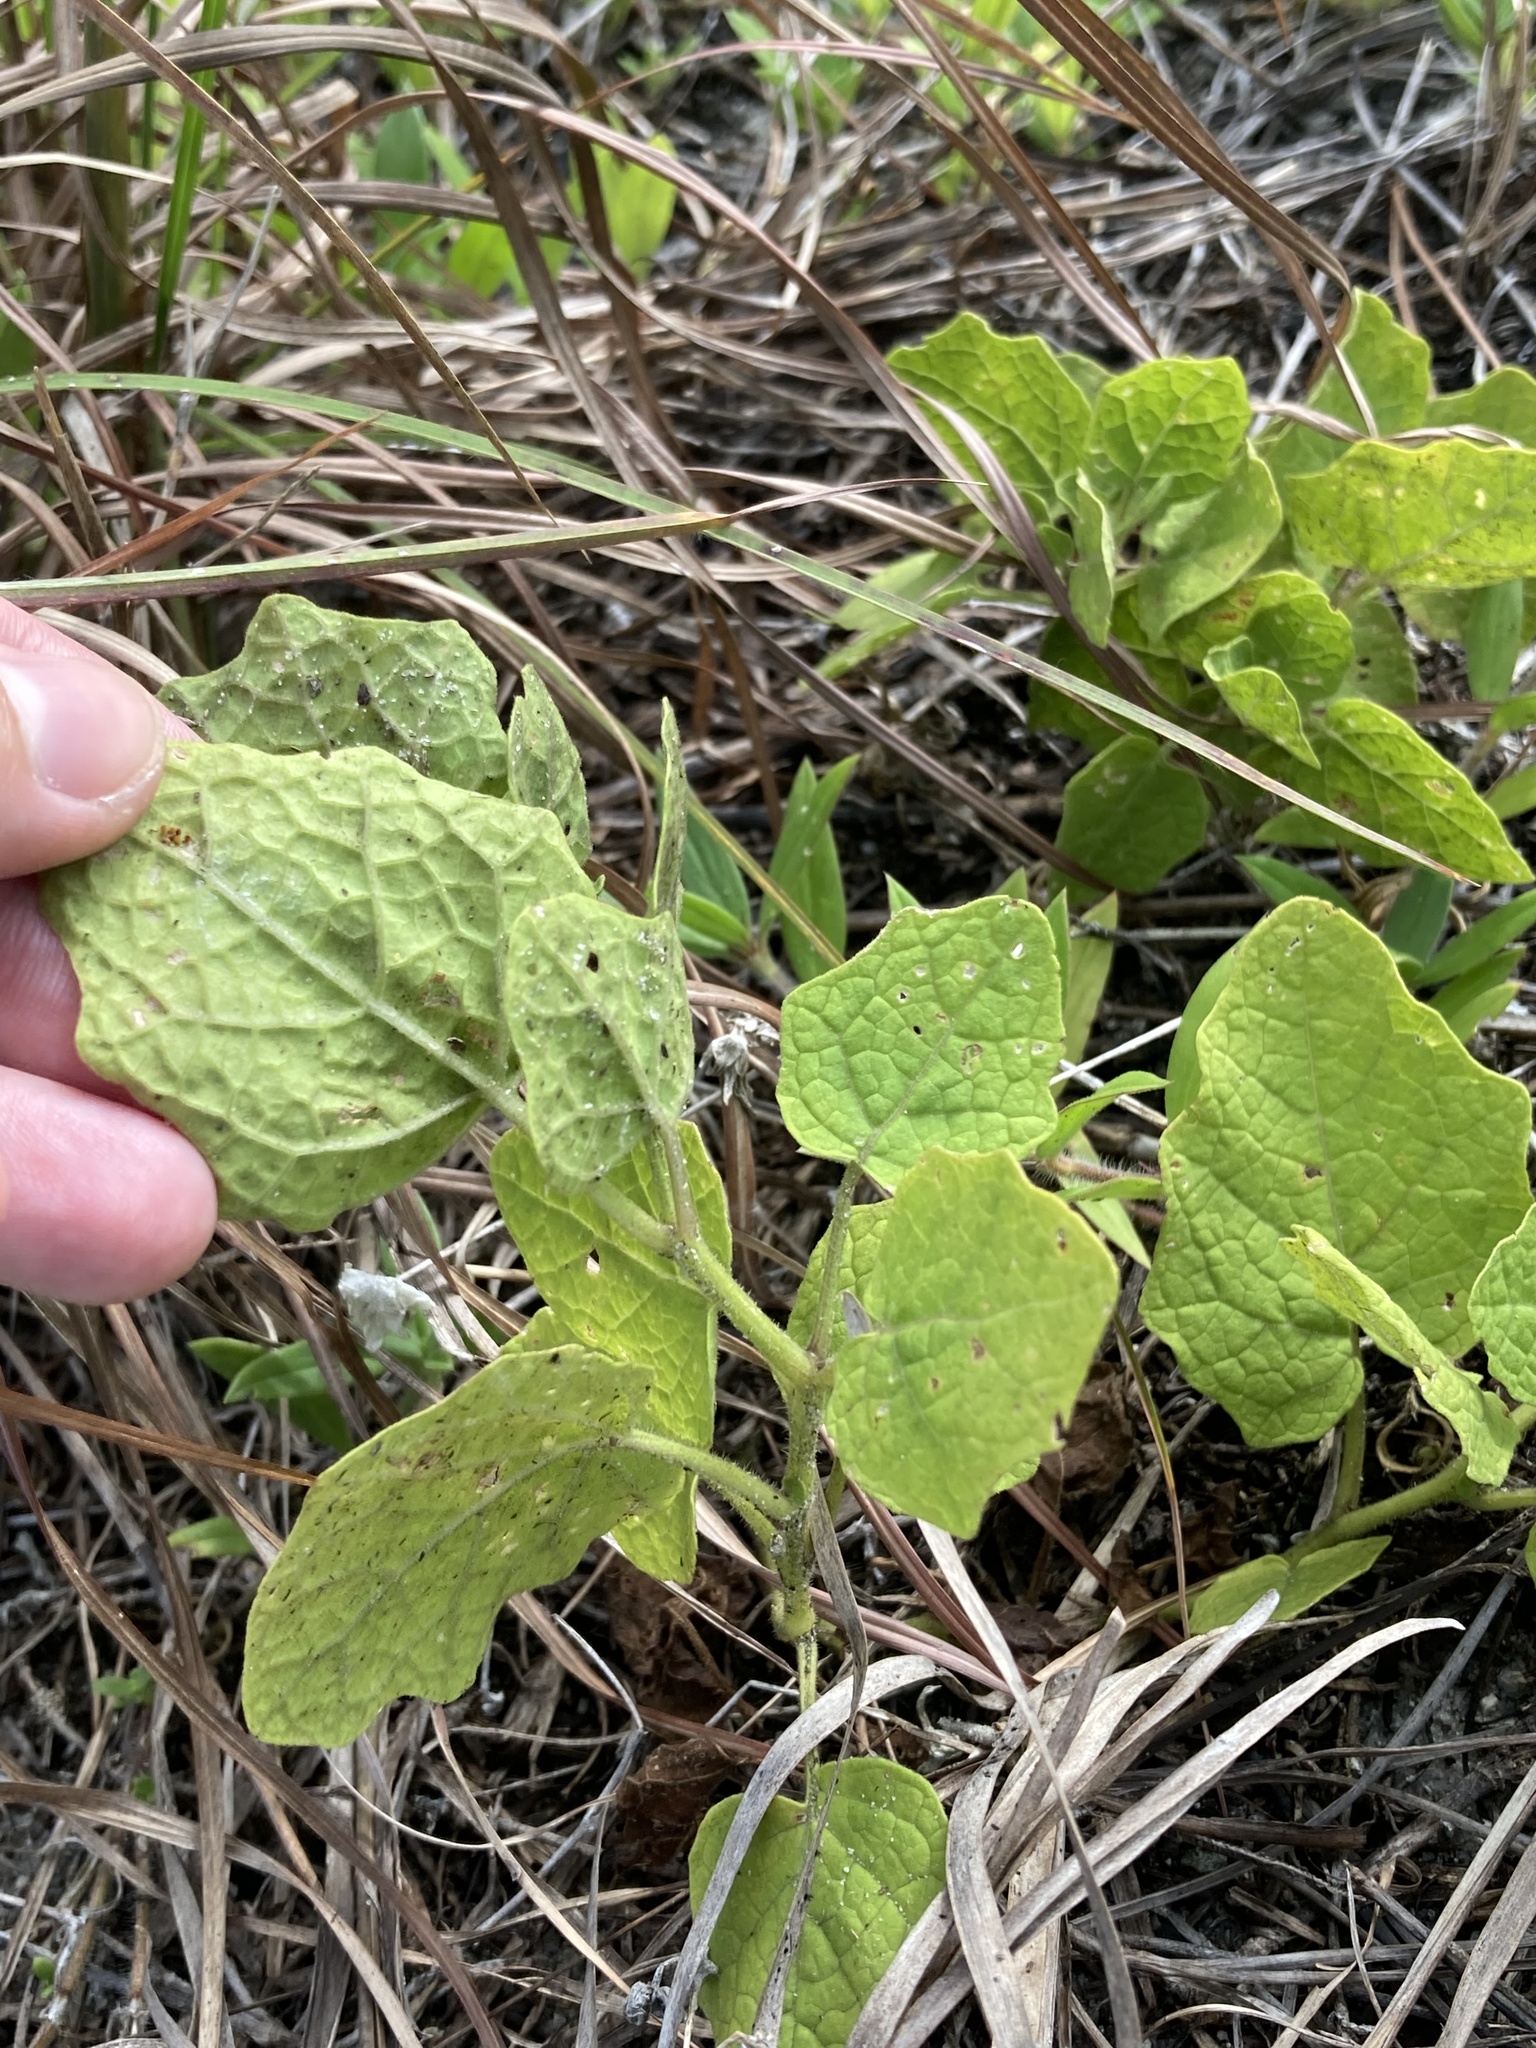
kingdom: Plantae
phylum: Tracheophyta
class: Magnoliopsida
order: Solanales
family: Solanaceae
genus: Physalis
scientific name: Physalis arenicola
